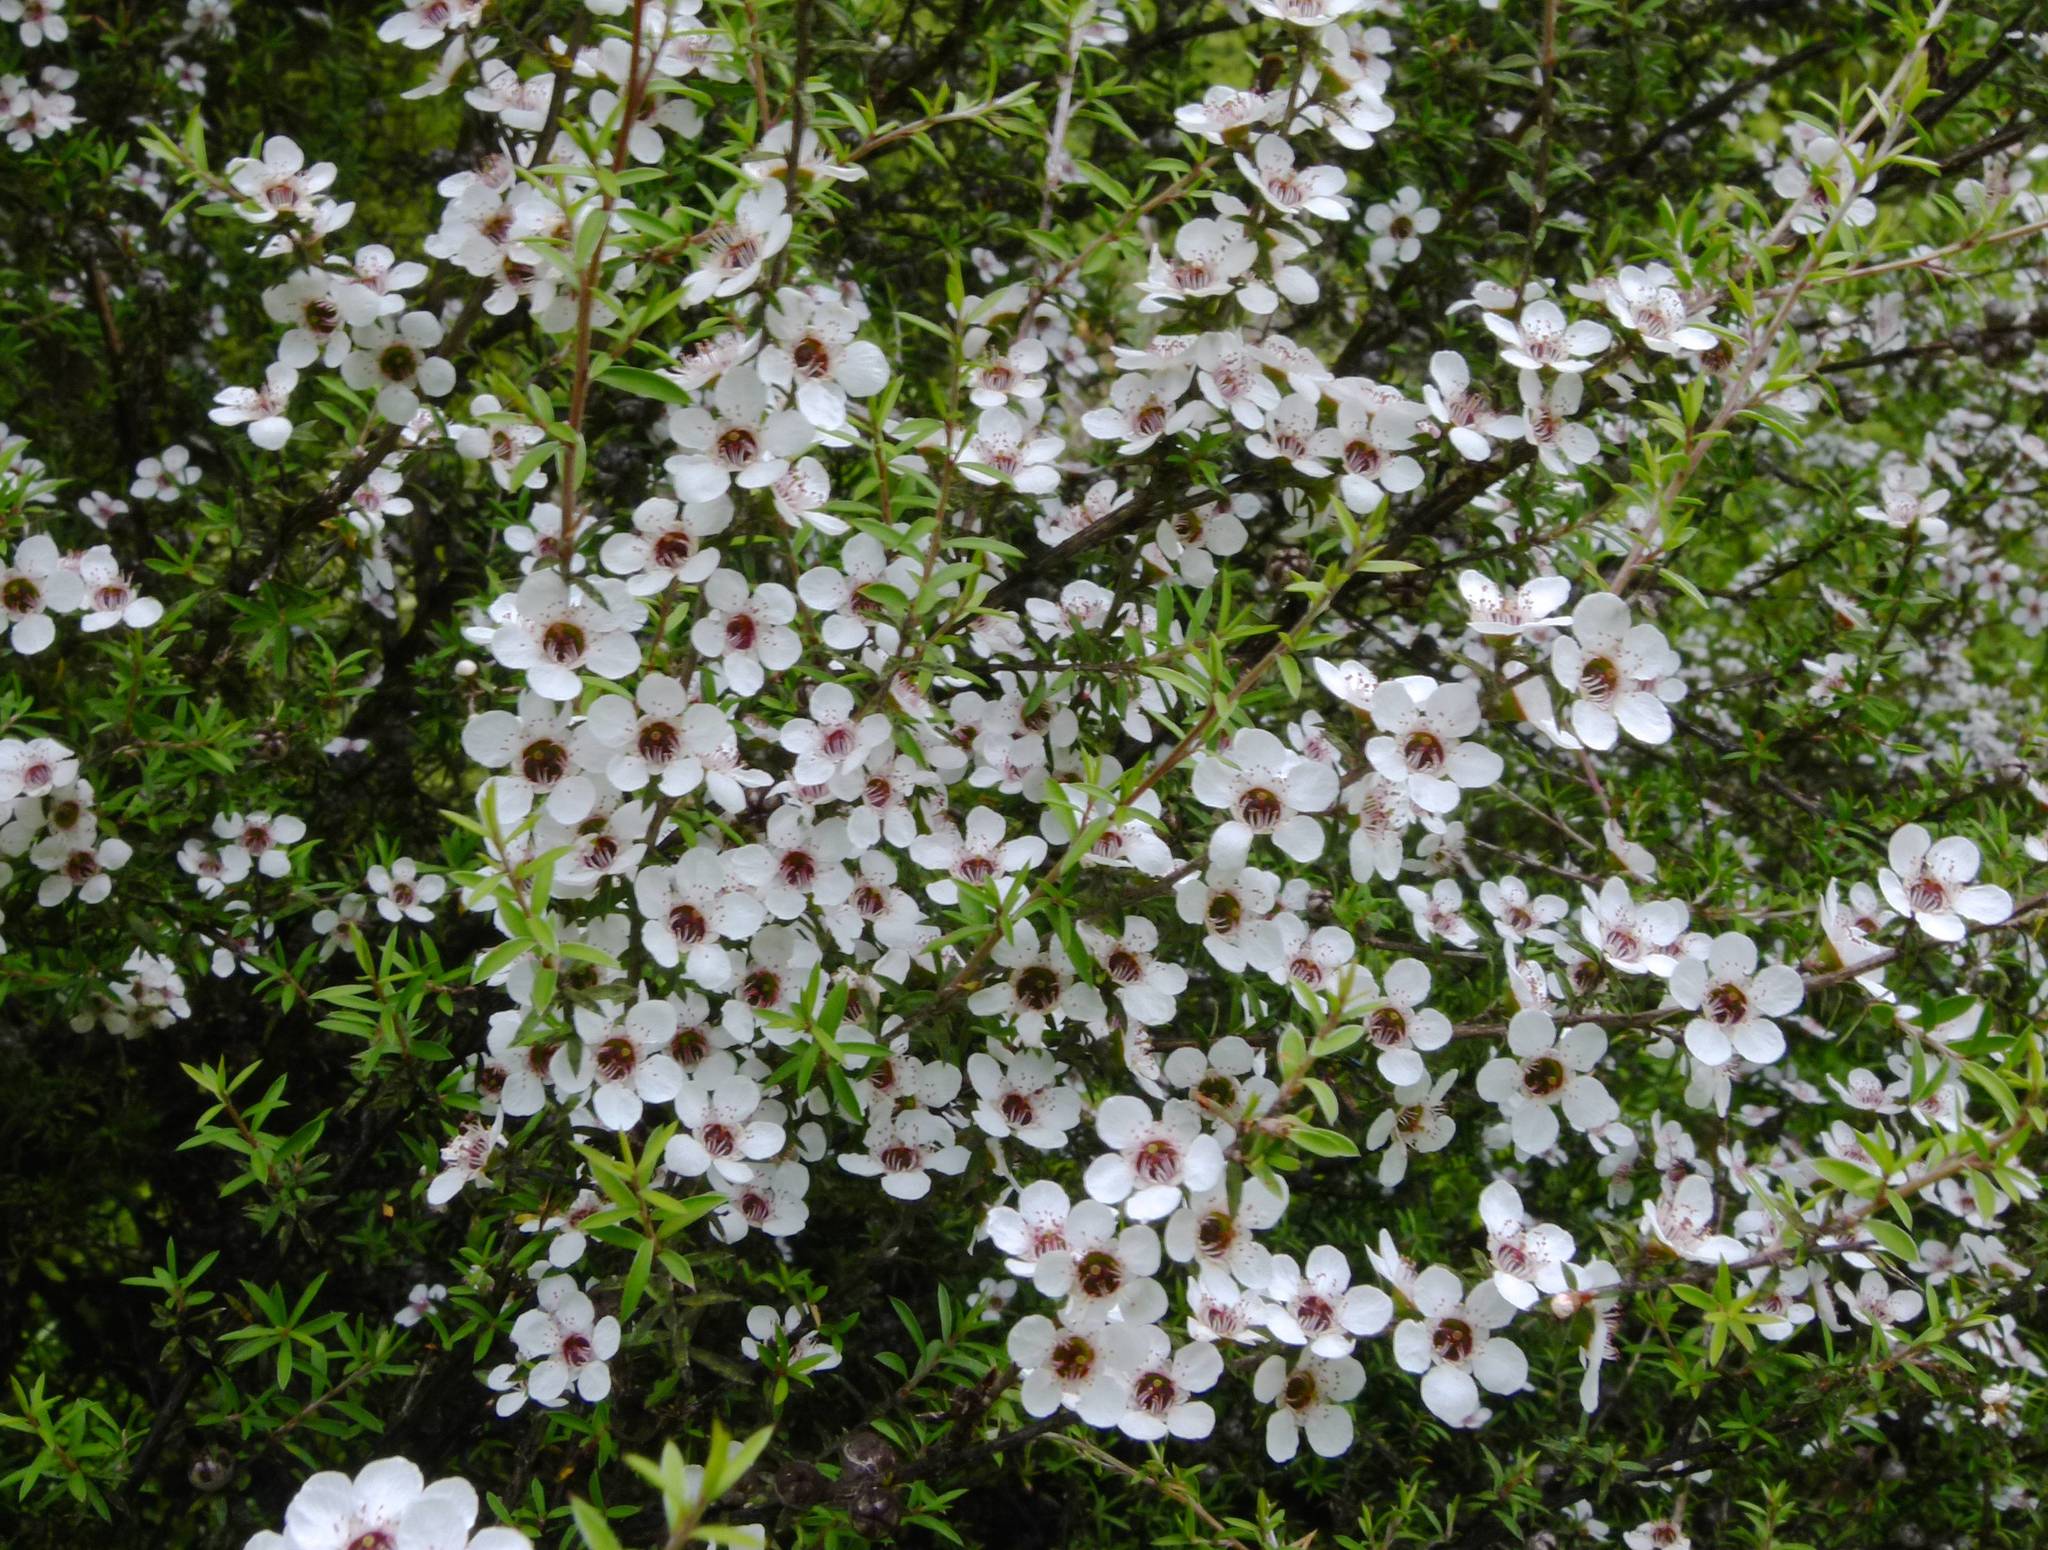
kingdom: Plantae
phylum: Tracheophyta
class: Magnoliopsida
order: Myrtales
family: Myrtaceae
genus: Leptospermum
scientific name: Leptospermum scoparium
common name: Broom tea-tree
